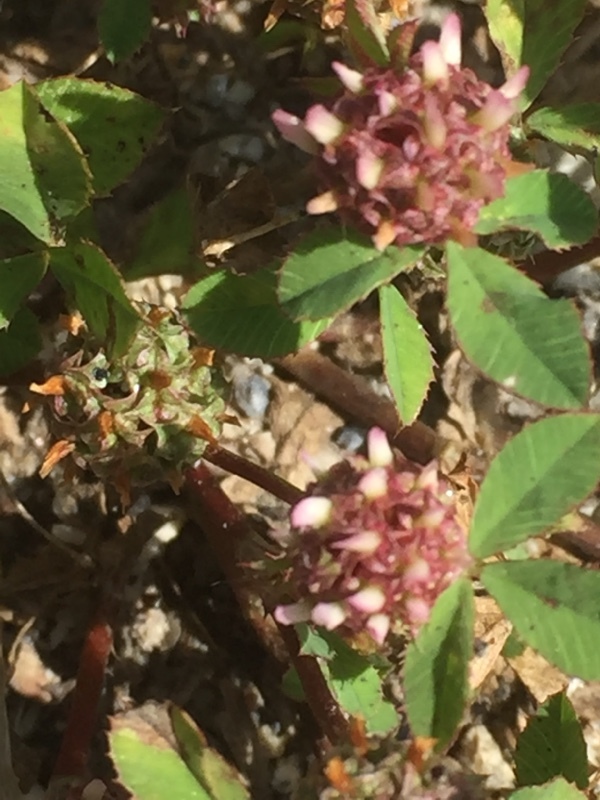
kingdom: Plantae
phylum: Tracheophyta
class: Magnoliopsida
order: Fabales
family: Fabaceae
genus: Trifolium
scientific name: Trifolium glomeratum
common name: Clustered clover
